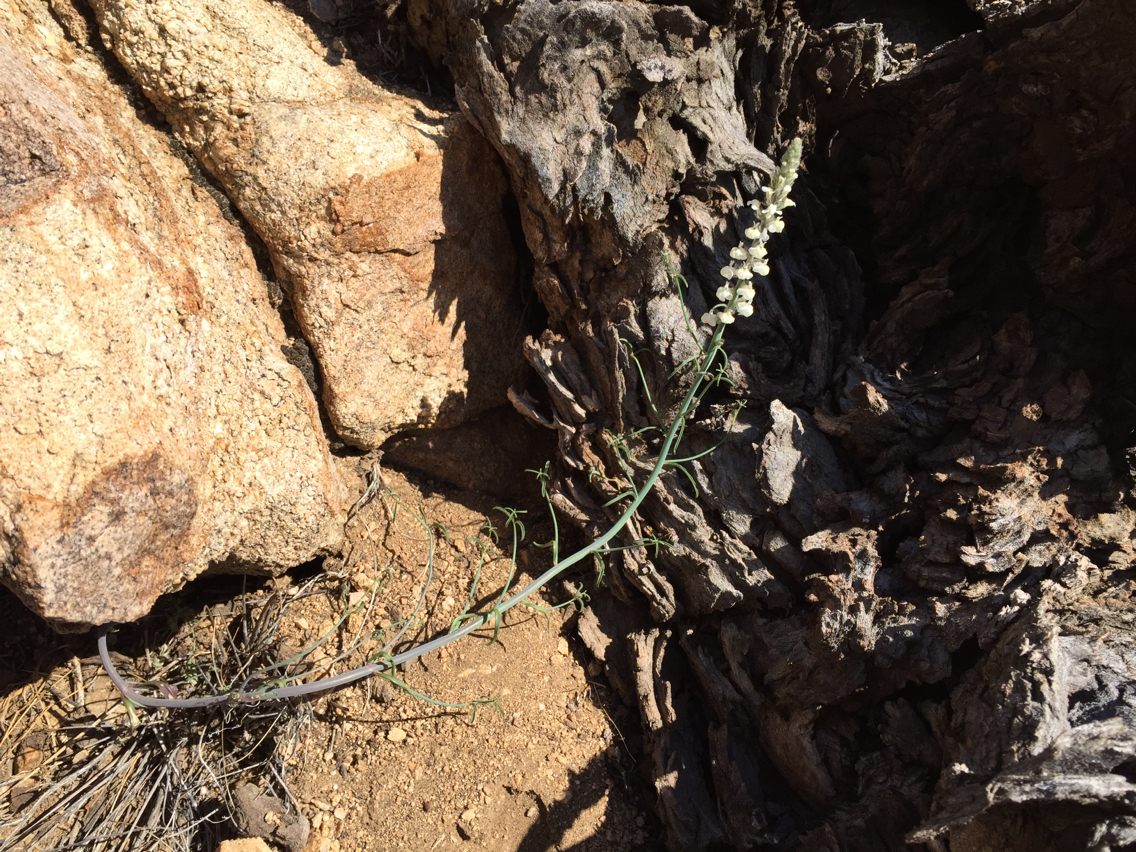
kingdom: Plantae
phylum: Tracheophyta
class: Magnoliopsida
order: Lamiales
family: Plantaginaceae
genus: Sairocarpus
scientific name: Sairocarpus coulterianus
